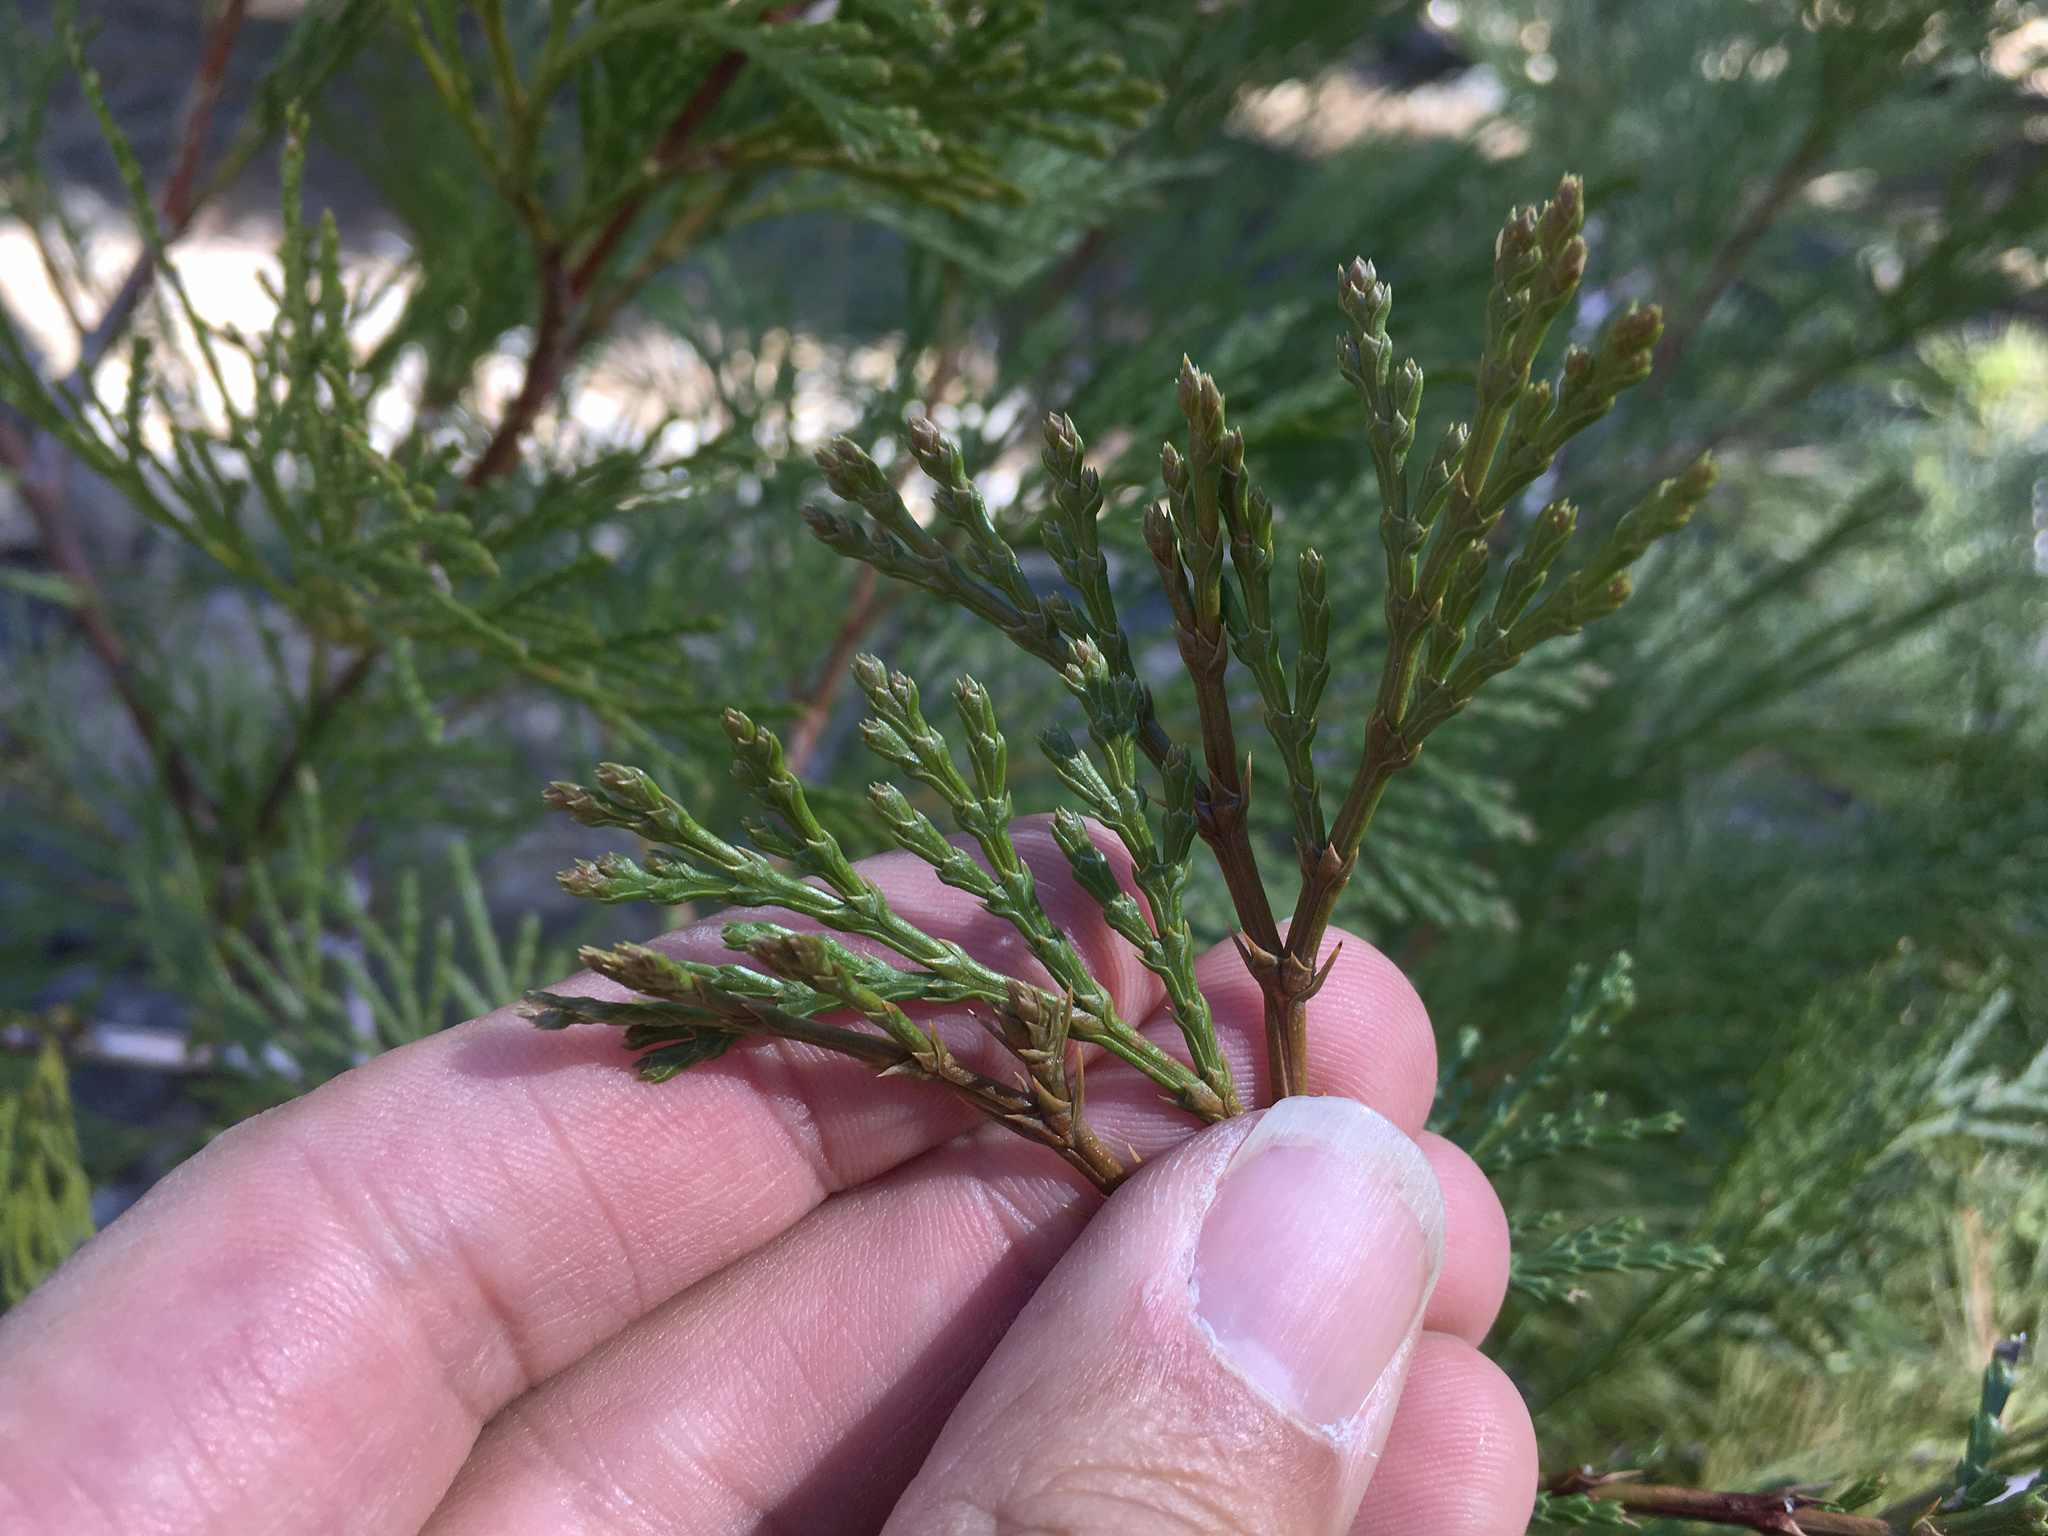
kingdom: Plantae
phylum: Tracheophyta
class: Pinopsida
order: Pinales
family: Cupressaceae
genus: Calocedrus
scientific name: Calocedrus decurrens
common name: Californian incense-cedar
